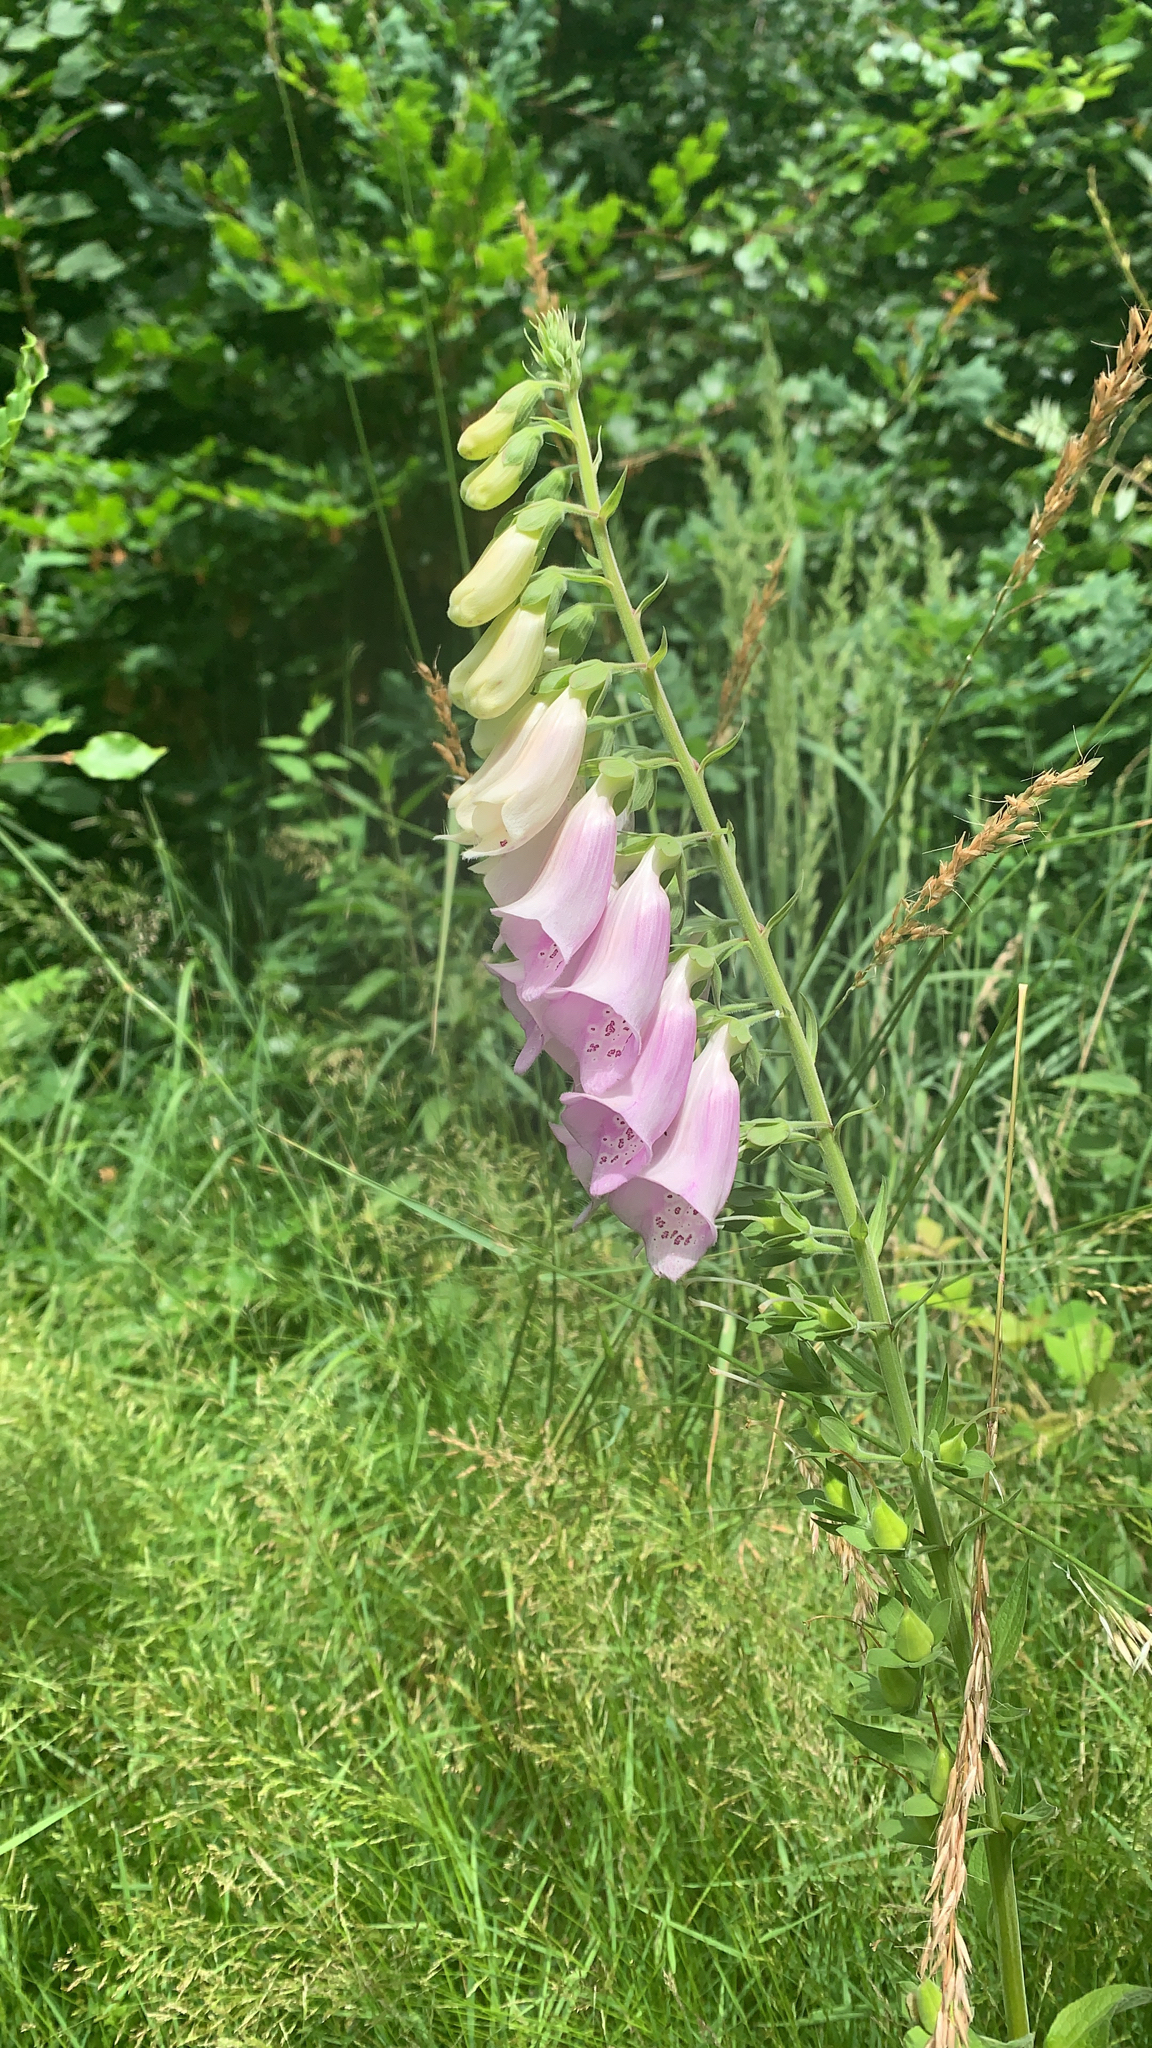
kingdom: Plantae
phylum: Tracheophyta
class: Magnoliopsida
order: Lamiales
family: Plantaginaceae
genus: Digitalis
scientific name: Digitalis purpurea
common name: Foxglove
